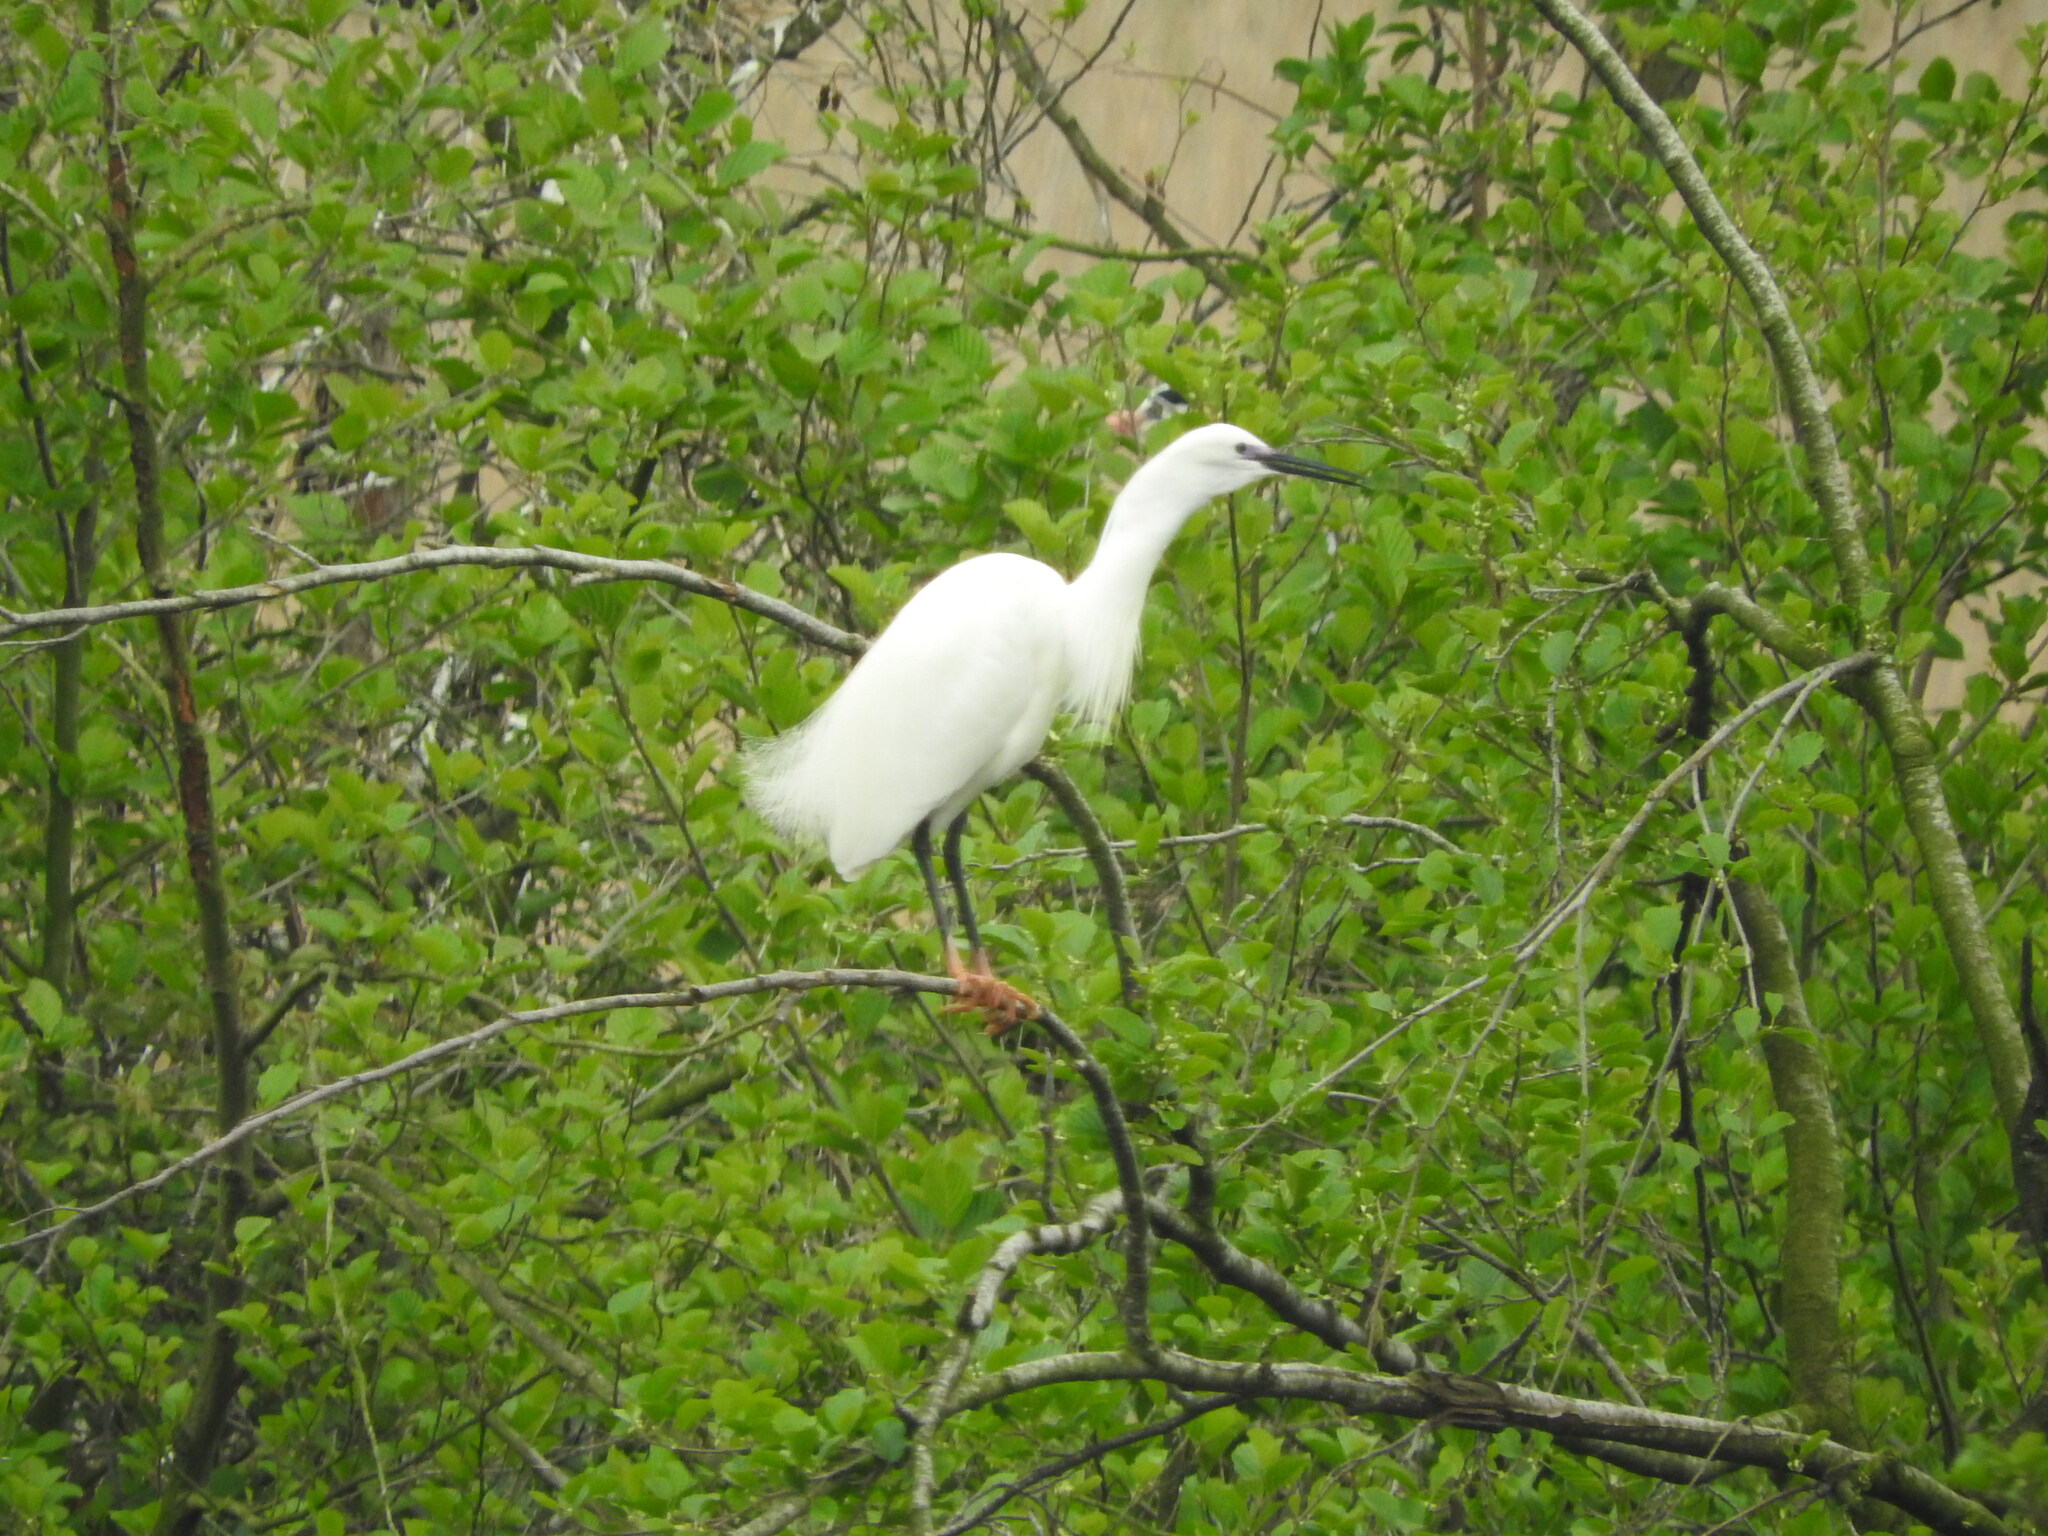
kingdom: Animalia
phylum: Chordata
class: Aves
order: Pelecaniformes
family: Ardeidae
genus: Egretta
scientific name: Egretta garzetta
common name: Little egret
